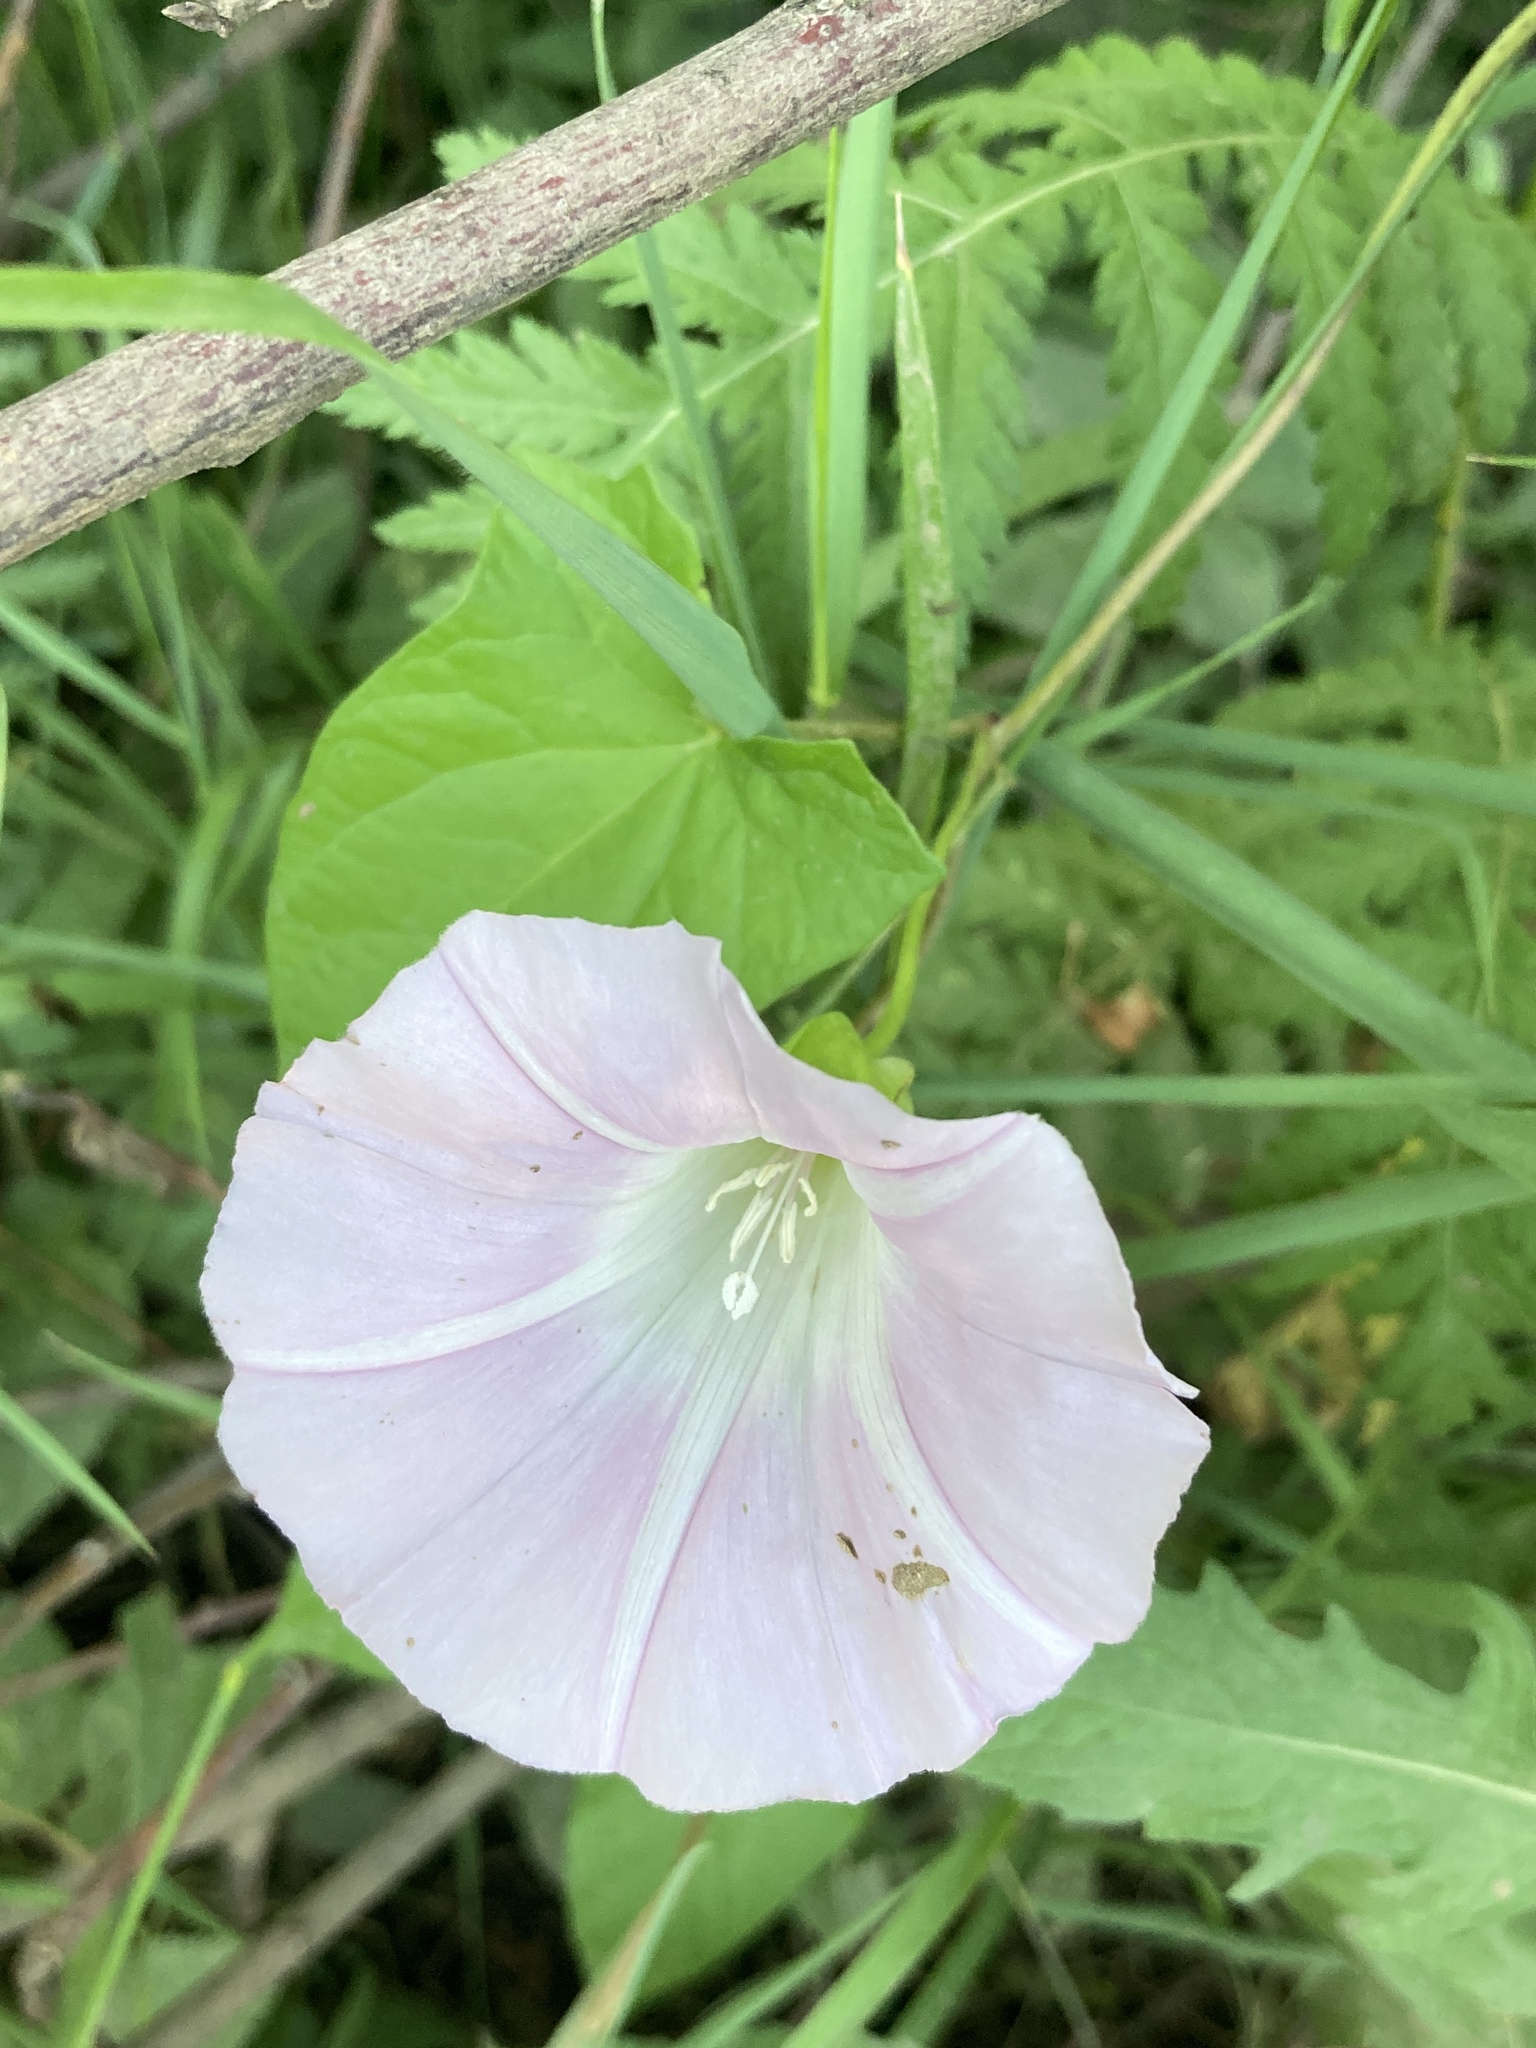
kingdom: Plantae
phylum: Tracheophyta
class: Magnoliopsida
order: Solanales
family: Convolvulaceae
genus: Calystegia
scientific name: Calystegia sepium
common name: Hedge bindweed
